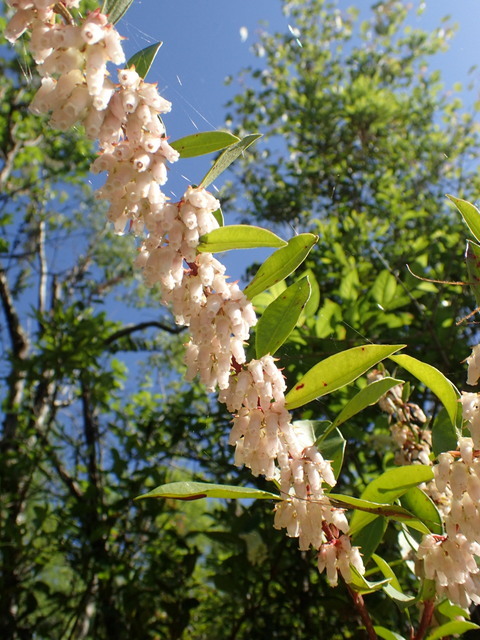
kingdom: Plantae
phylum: Tracheophyta
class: Magnoliopsida
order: Ericales
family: Ericaceae
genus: Lyonia
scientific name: Lyonia lucida
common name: Fetterbush
